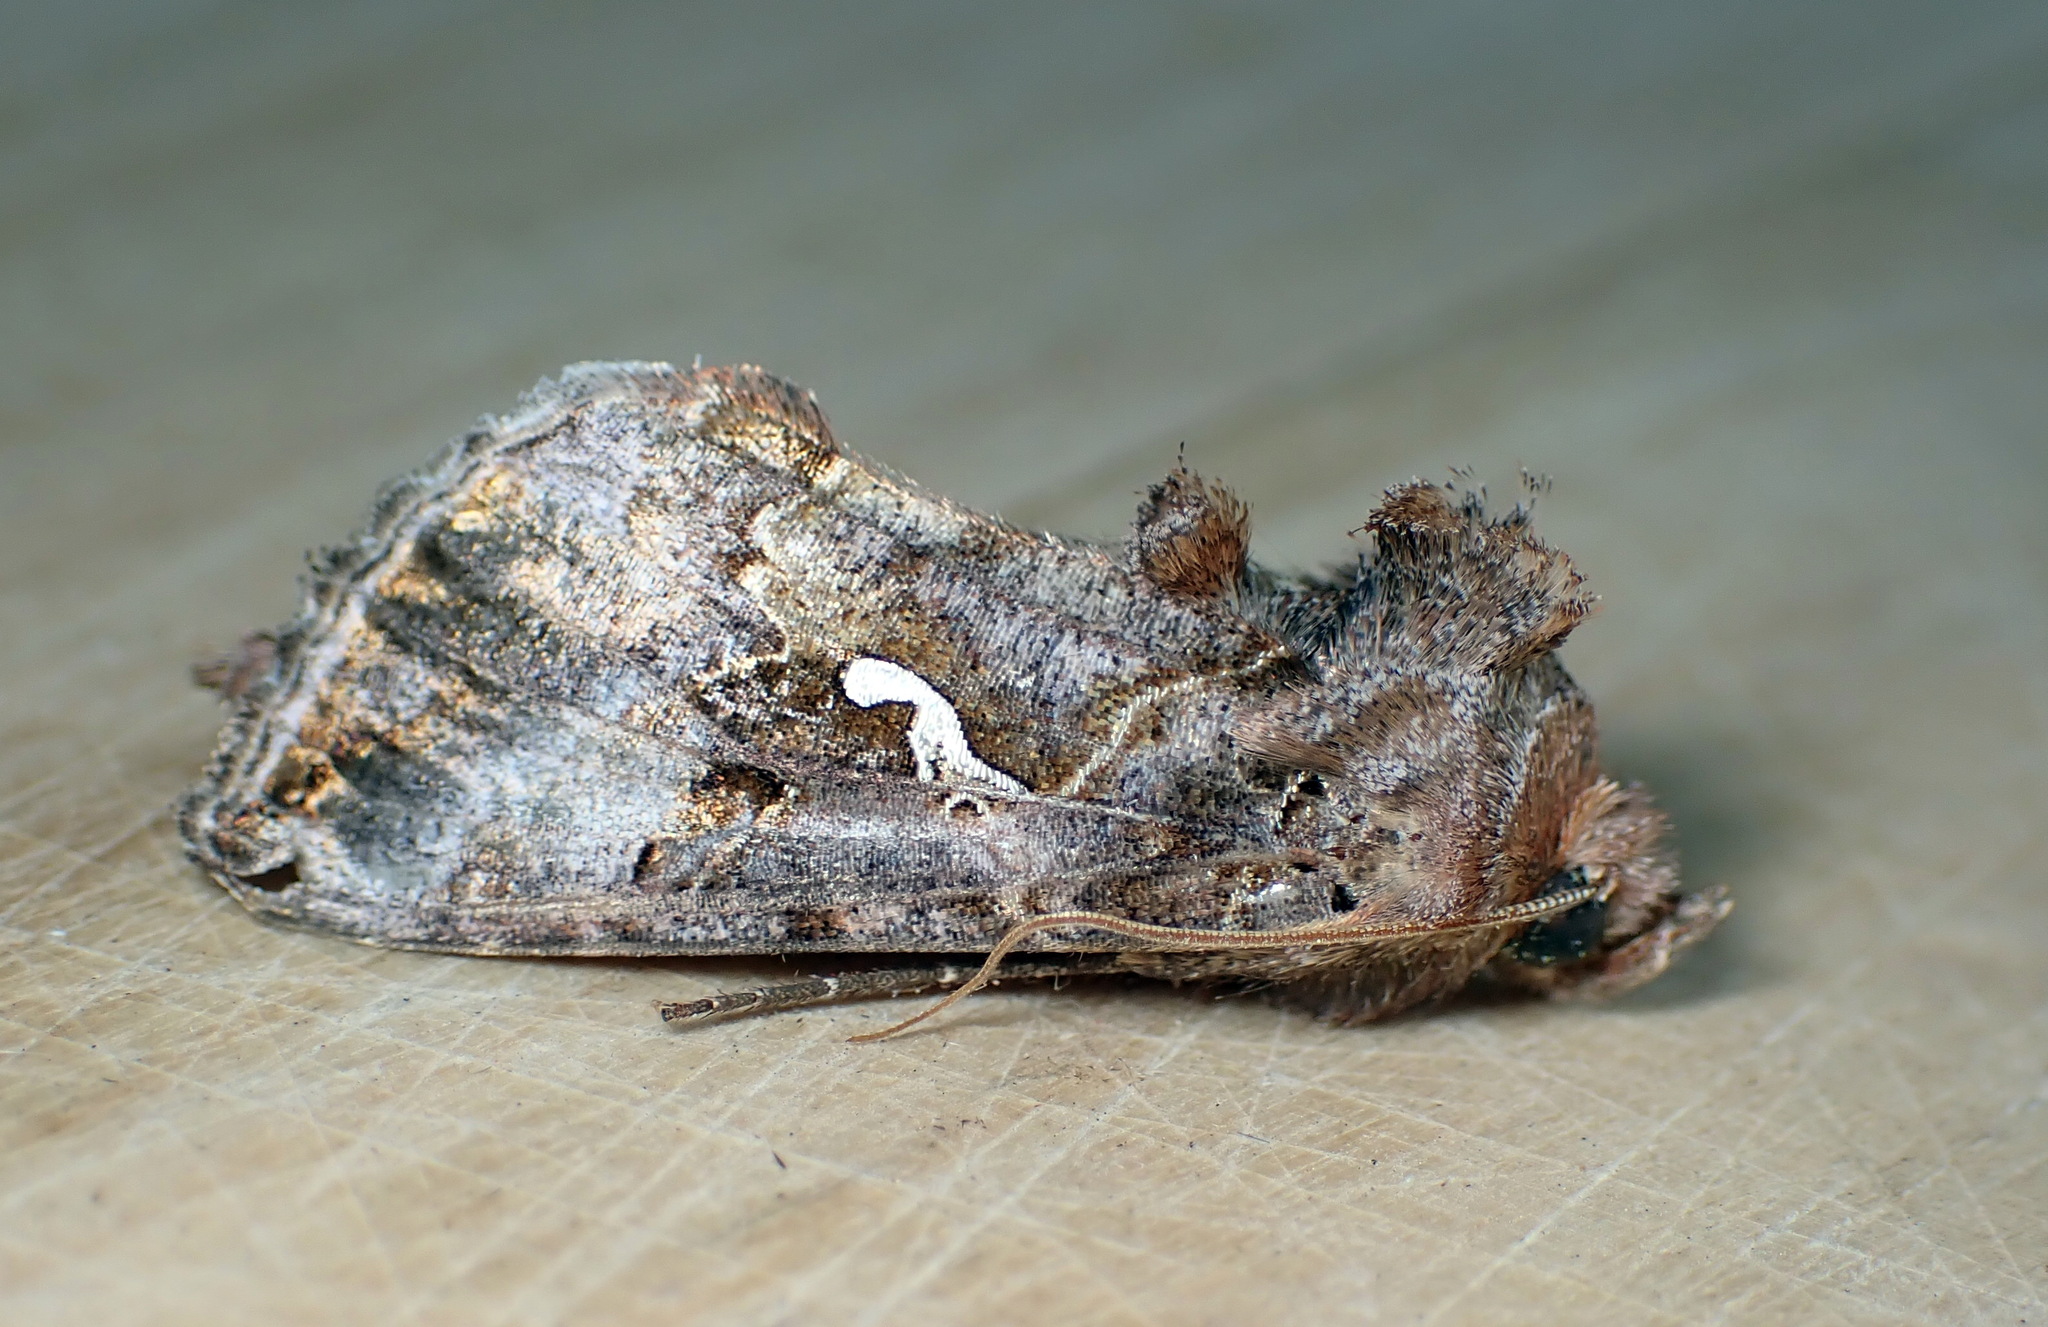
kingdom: Animalia
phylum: Arthropoda
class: Insecta
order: Lepidoptera
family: Noctuidae
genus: Autographa
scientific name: Autographa precationis
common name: Common looper moth
